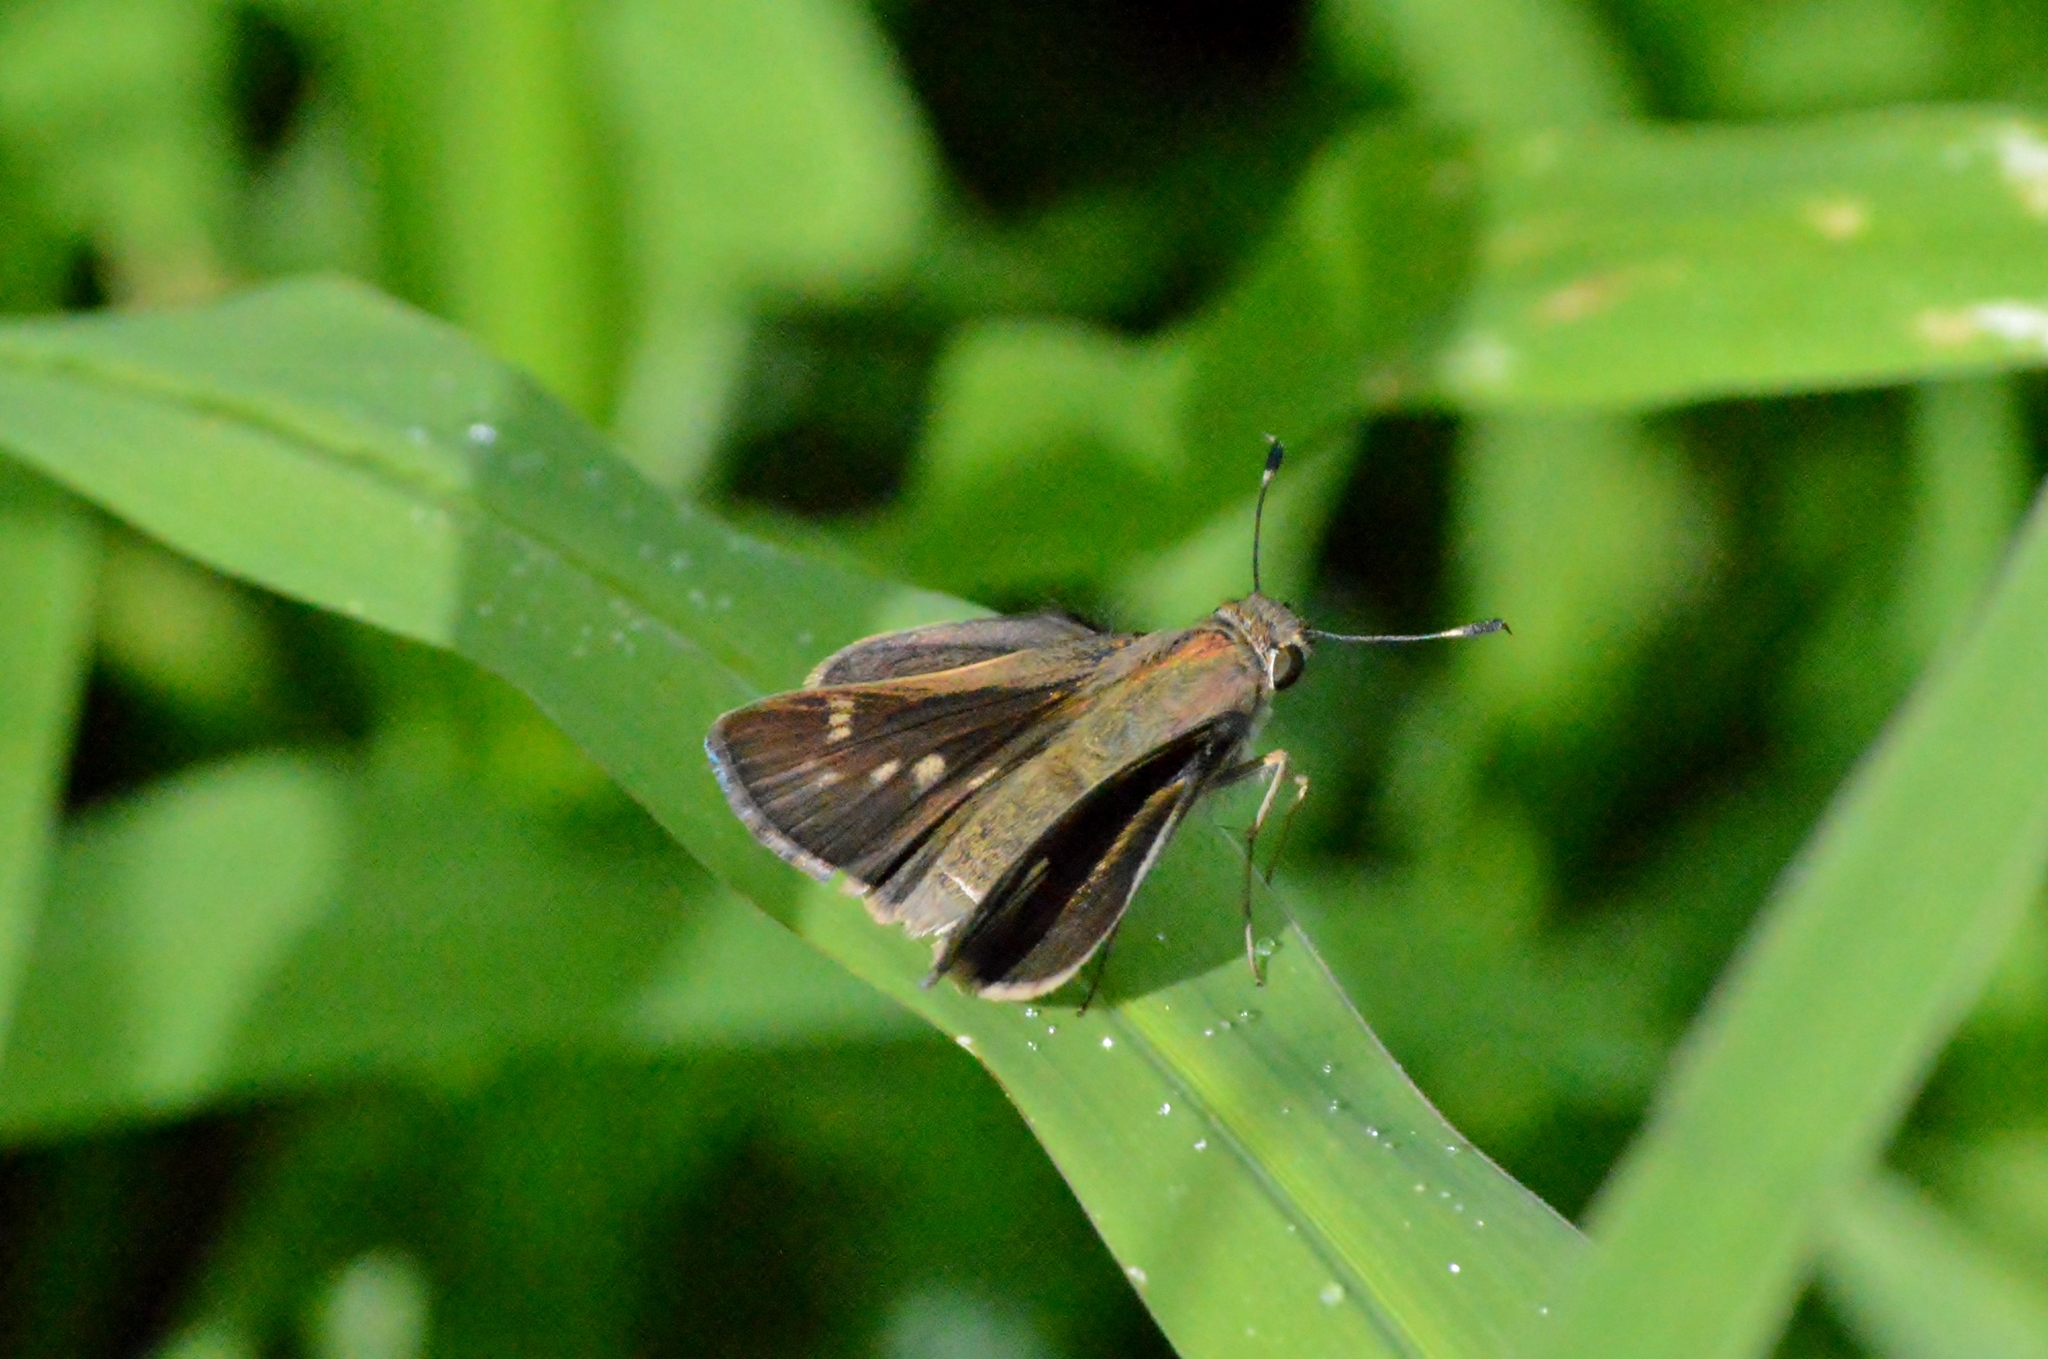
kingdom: Animalia
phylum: Arthropoda
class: Insecta
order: Lepidoptera
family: Hesperiidae
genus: Pompeius
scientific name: Pompeius pompeius
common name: Pompeius skipper
